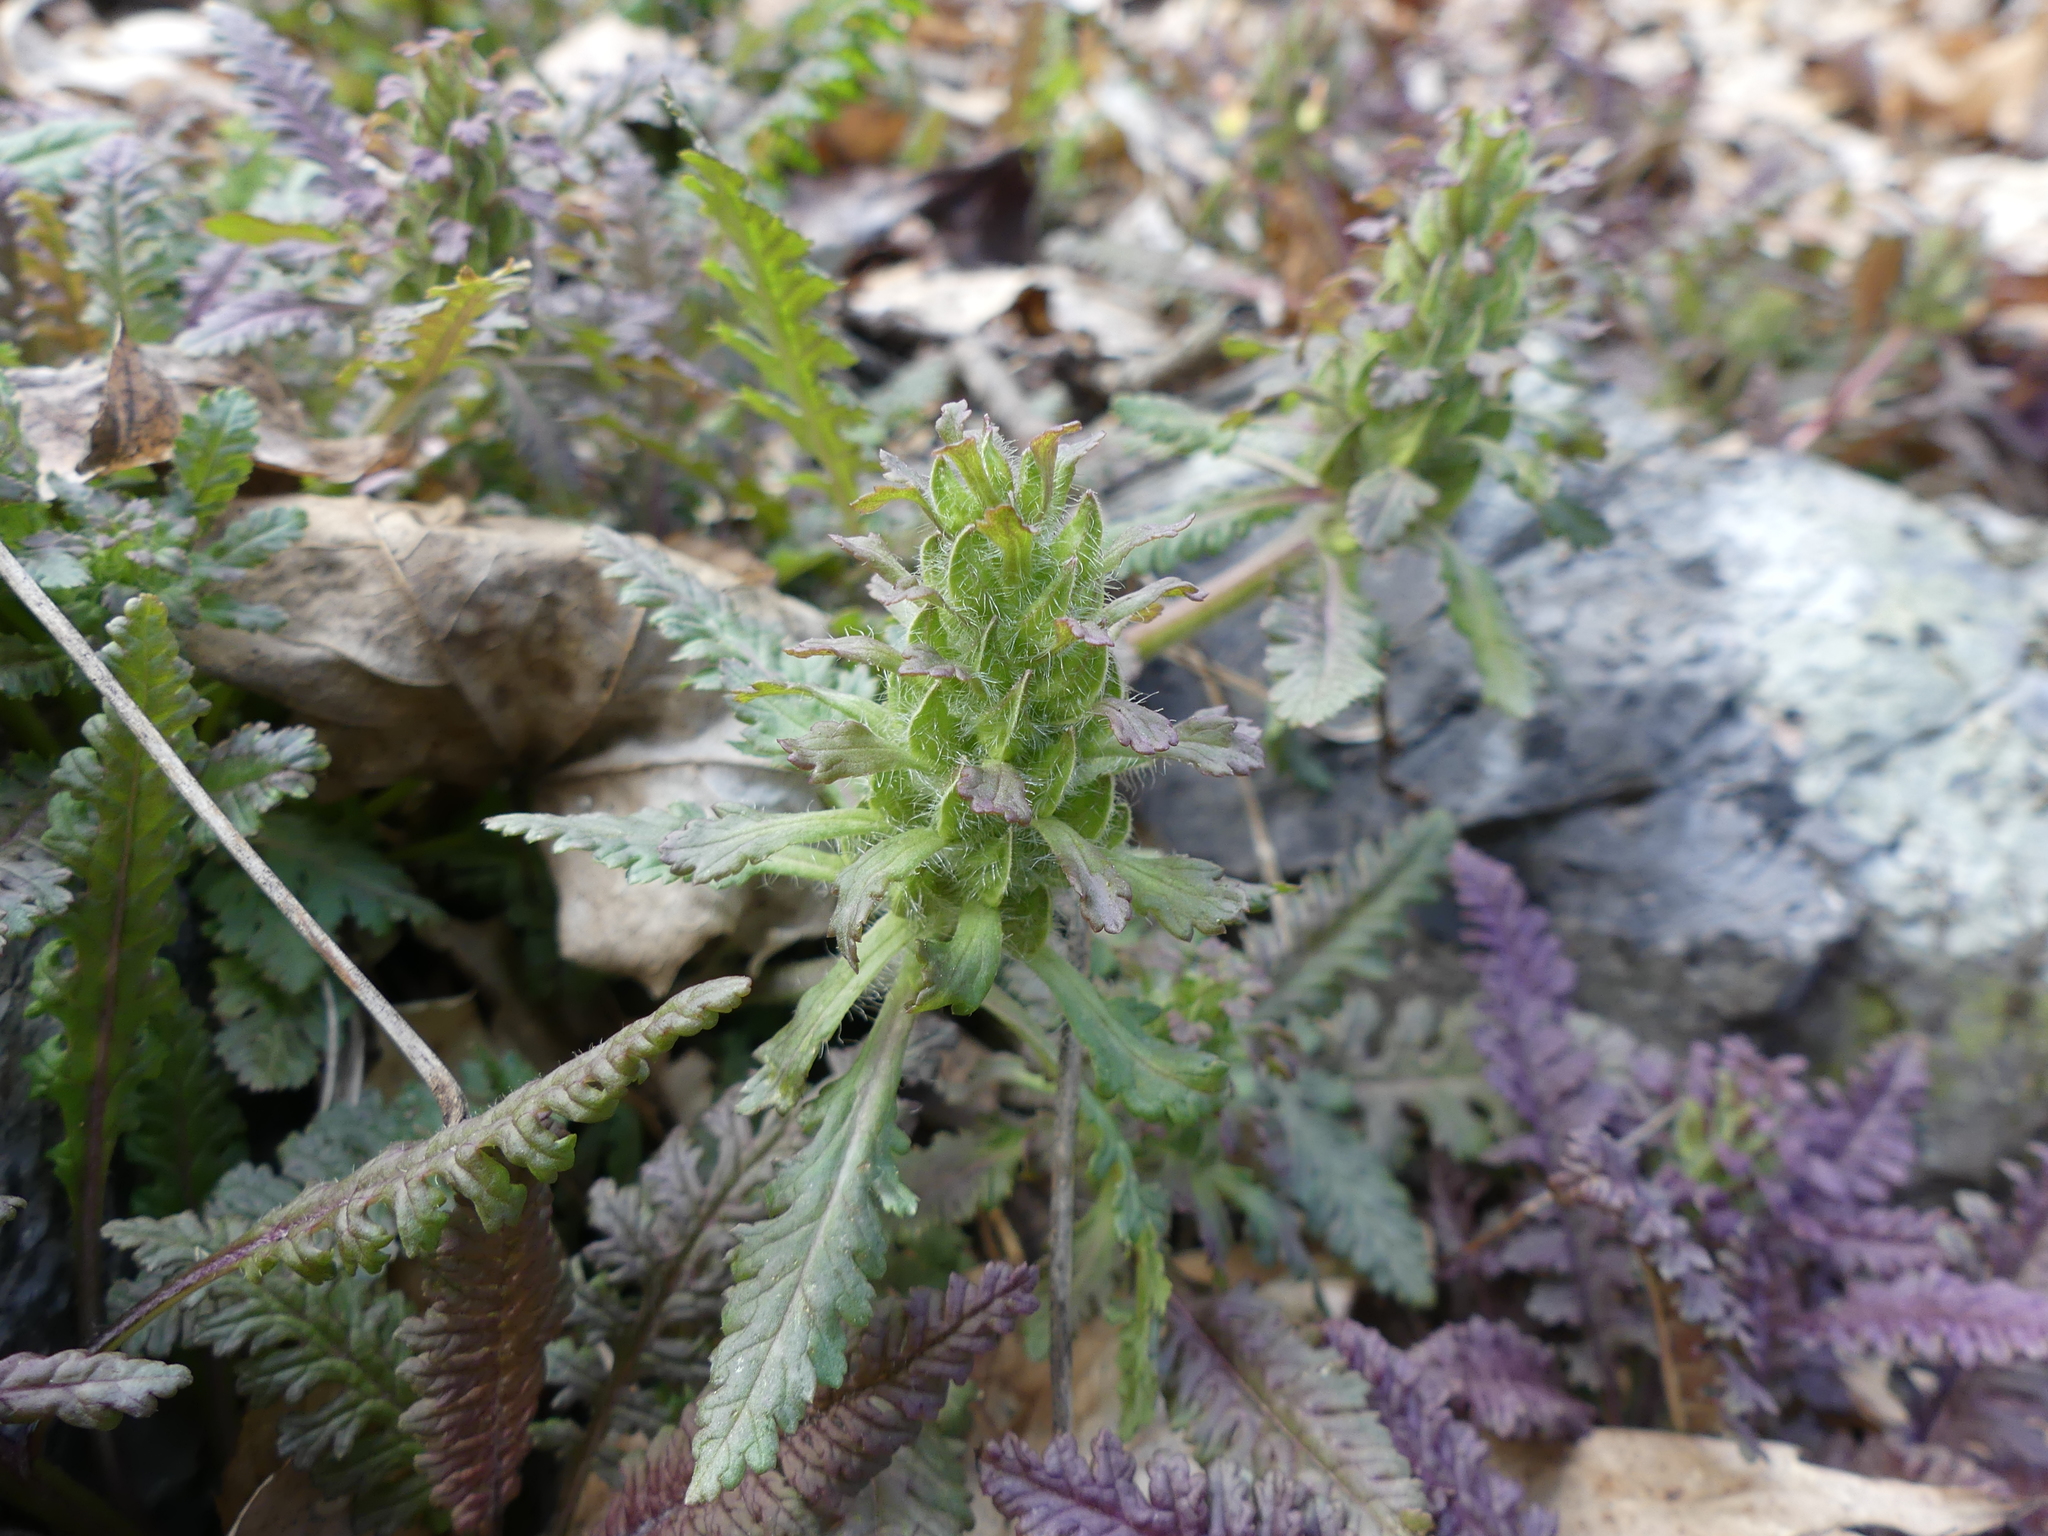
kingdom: Plantae
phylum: Tracheophyta
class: Magnoliopsida
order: Lamiales
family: Orobanchaceae
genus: Pedicularis
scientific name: Pedicularis canadensis
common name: Early lousewort
